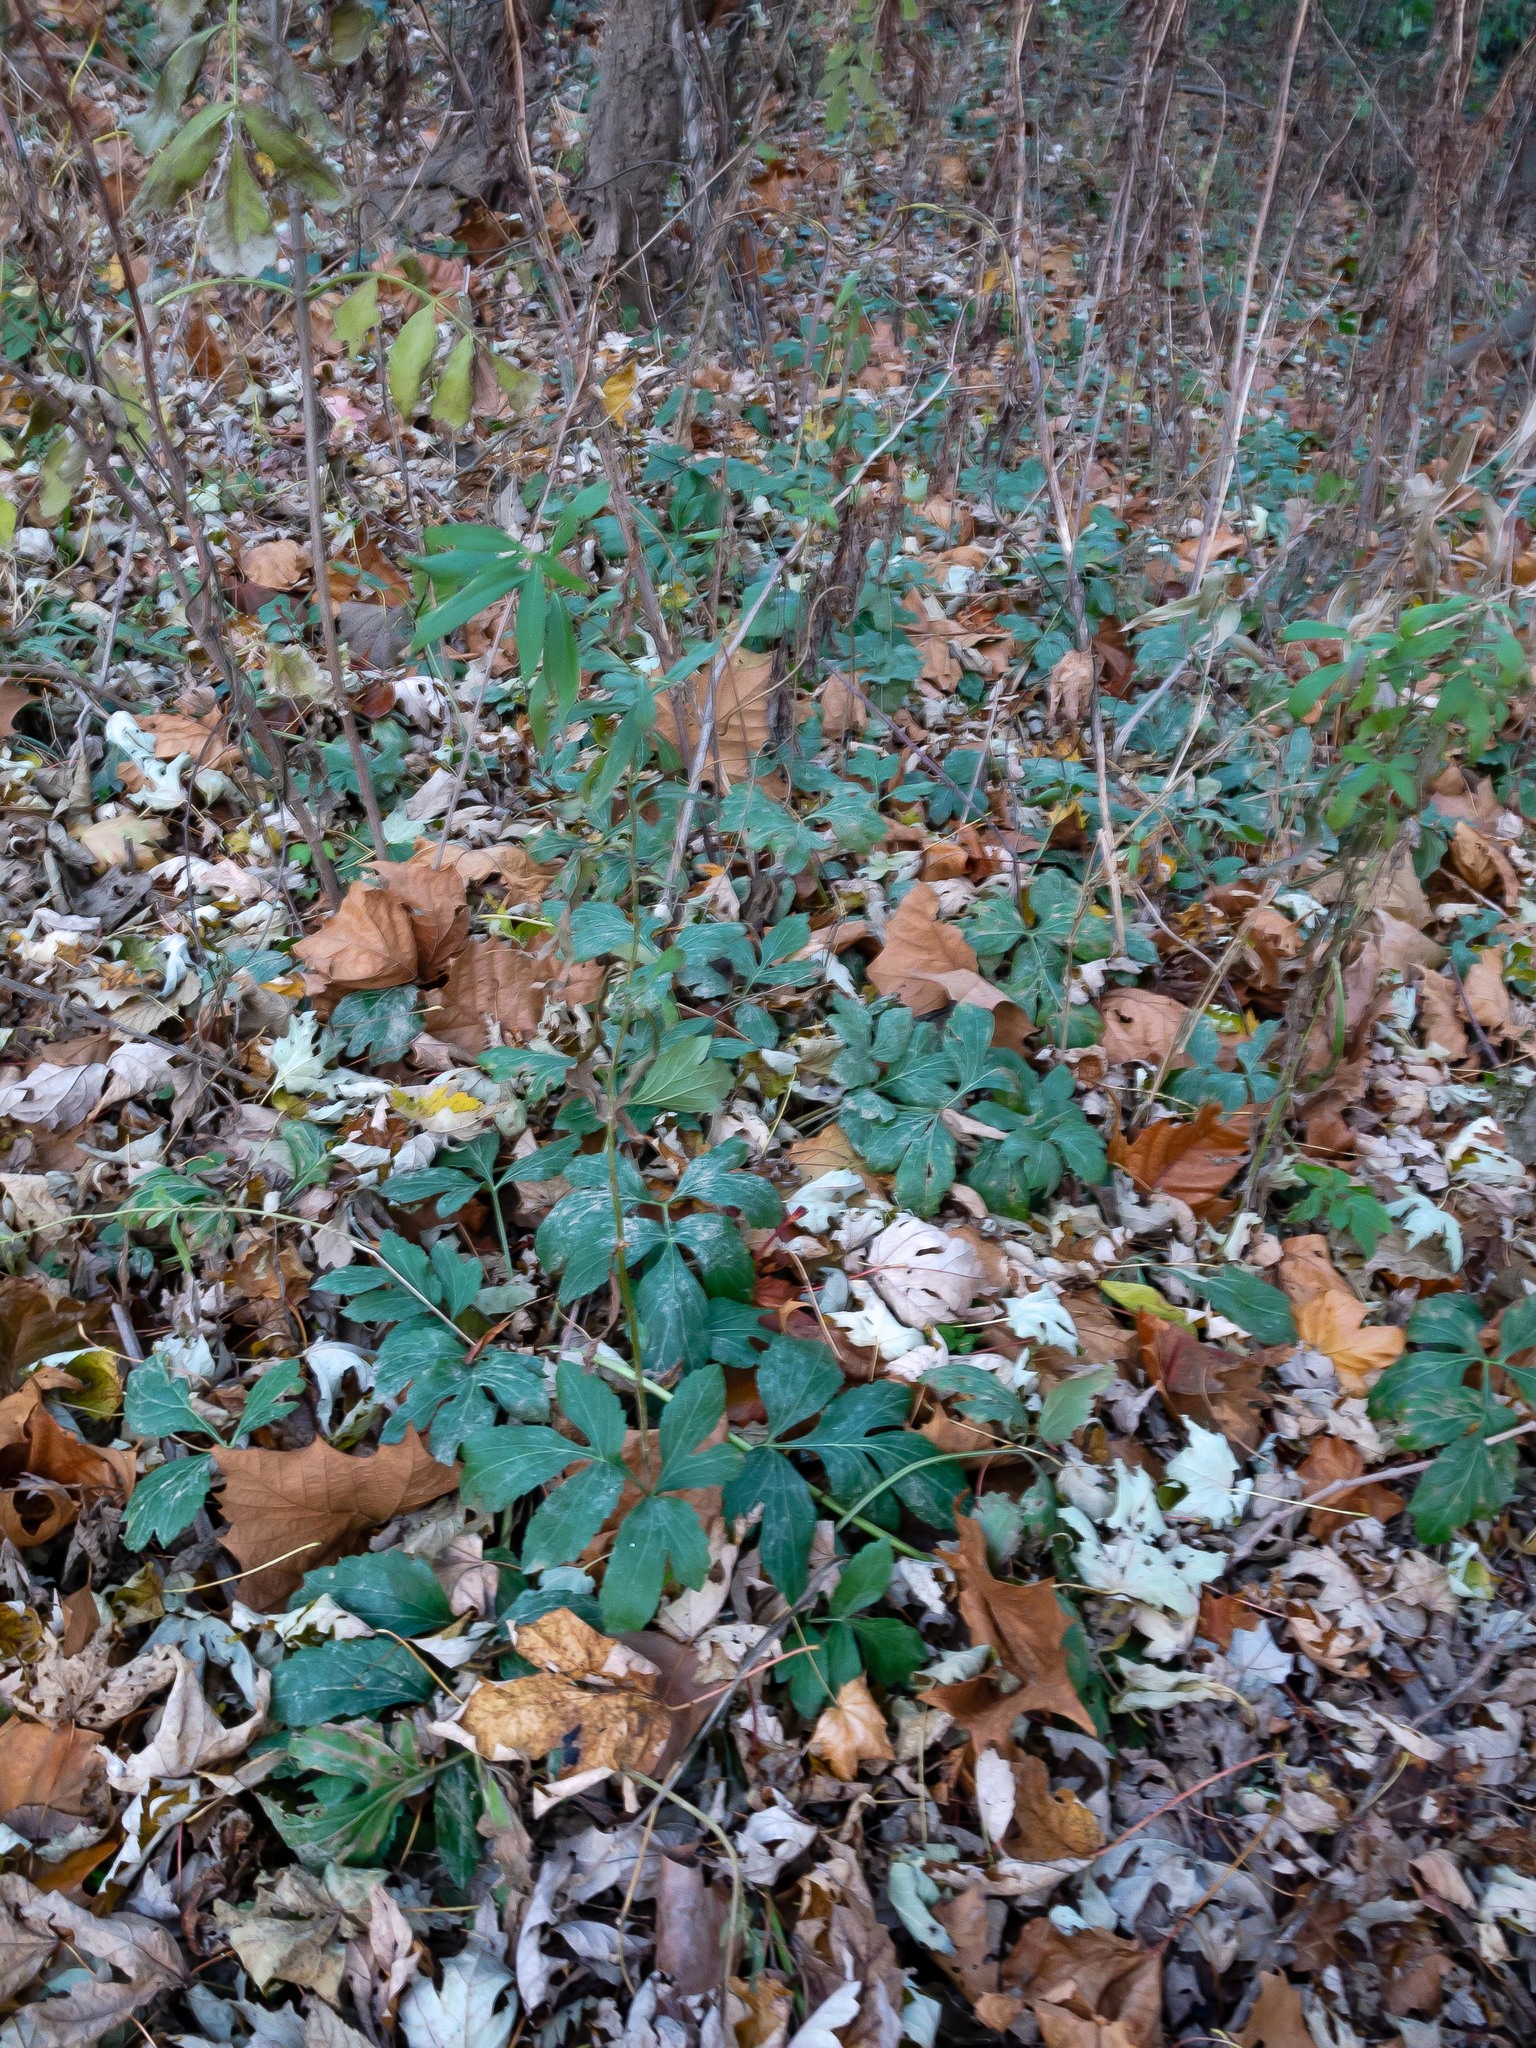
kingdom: Plantae
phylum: Tracheophyta
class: Magnoliopsida
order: Asterales
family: Asteraceae
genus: Rudbeckia
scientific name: Rudbeckia laciniata
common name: Coneflower
